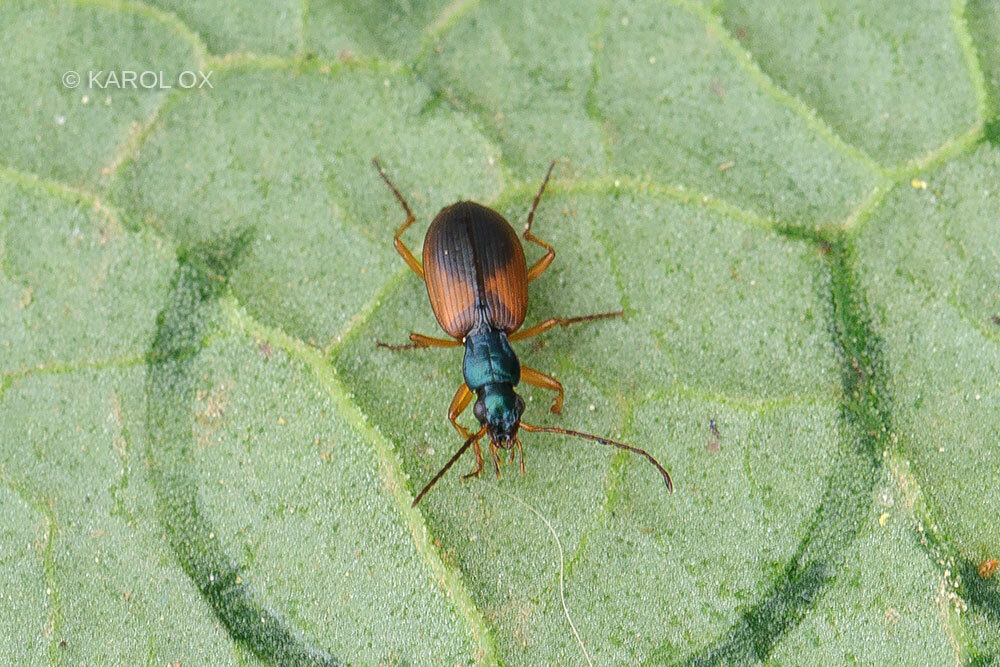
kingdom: Animalia
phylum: Arthropoda
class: Insecta
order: Coleoptera
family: Carabidae
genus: Anchomenus
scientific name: Anchomenus dorsalis
